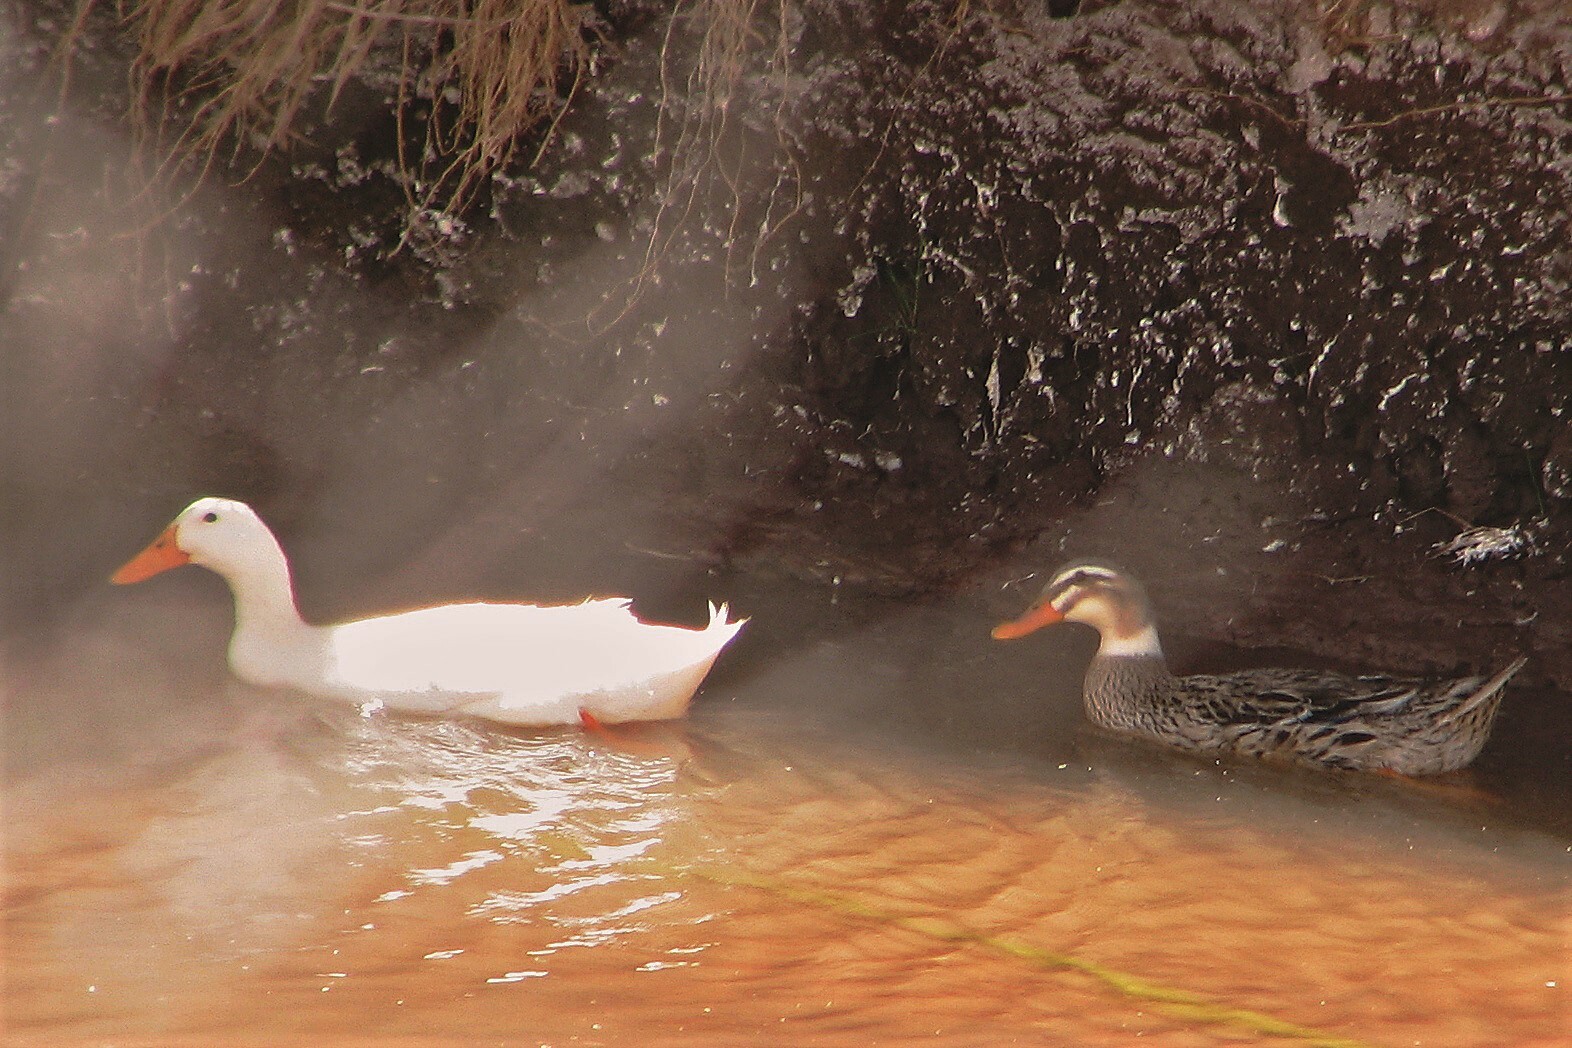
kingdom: Animalia
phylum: Chordata
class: Aves
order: Anseriformes
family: Anatidae
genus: Anas
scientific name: Anas platyrhynchos
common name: Mallard
